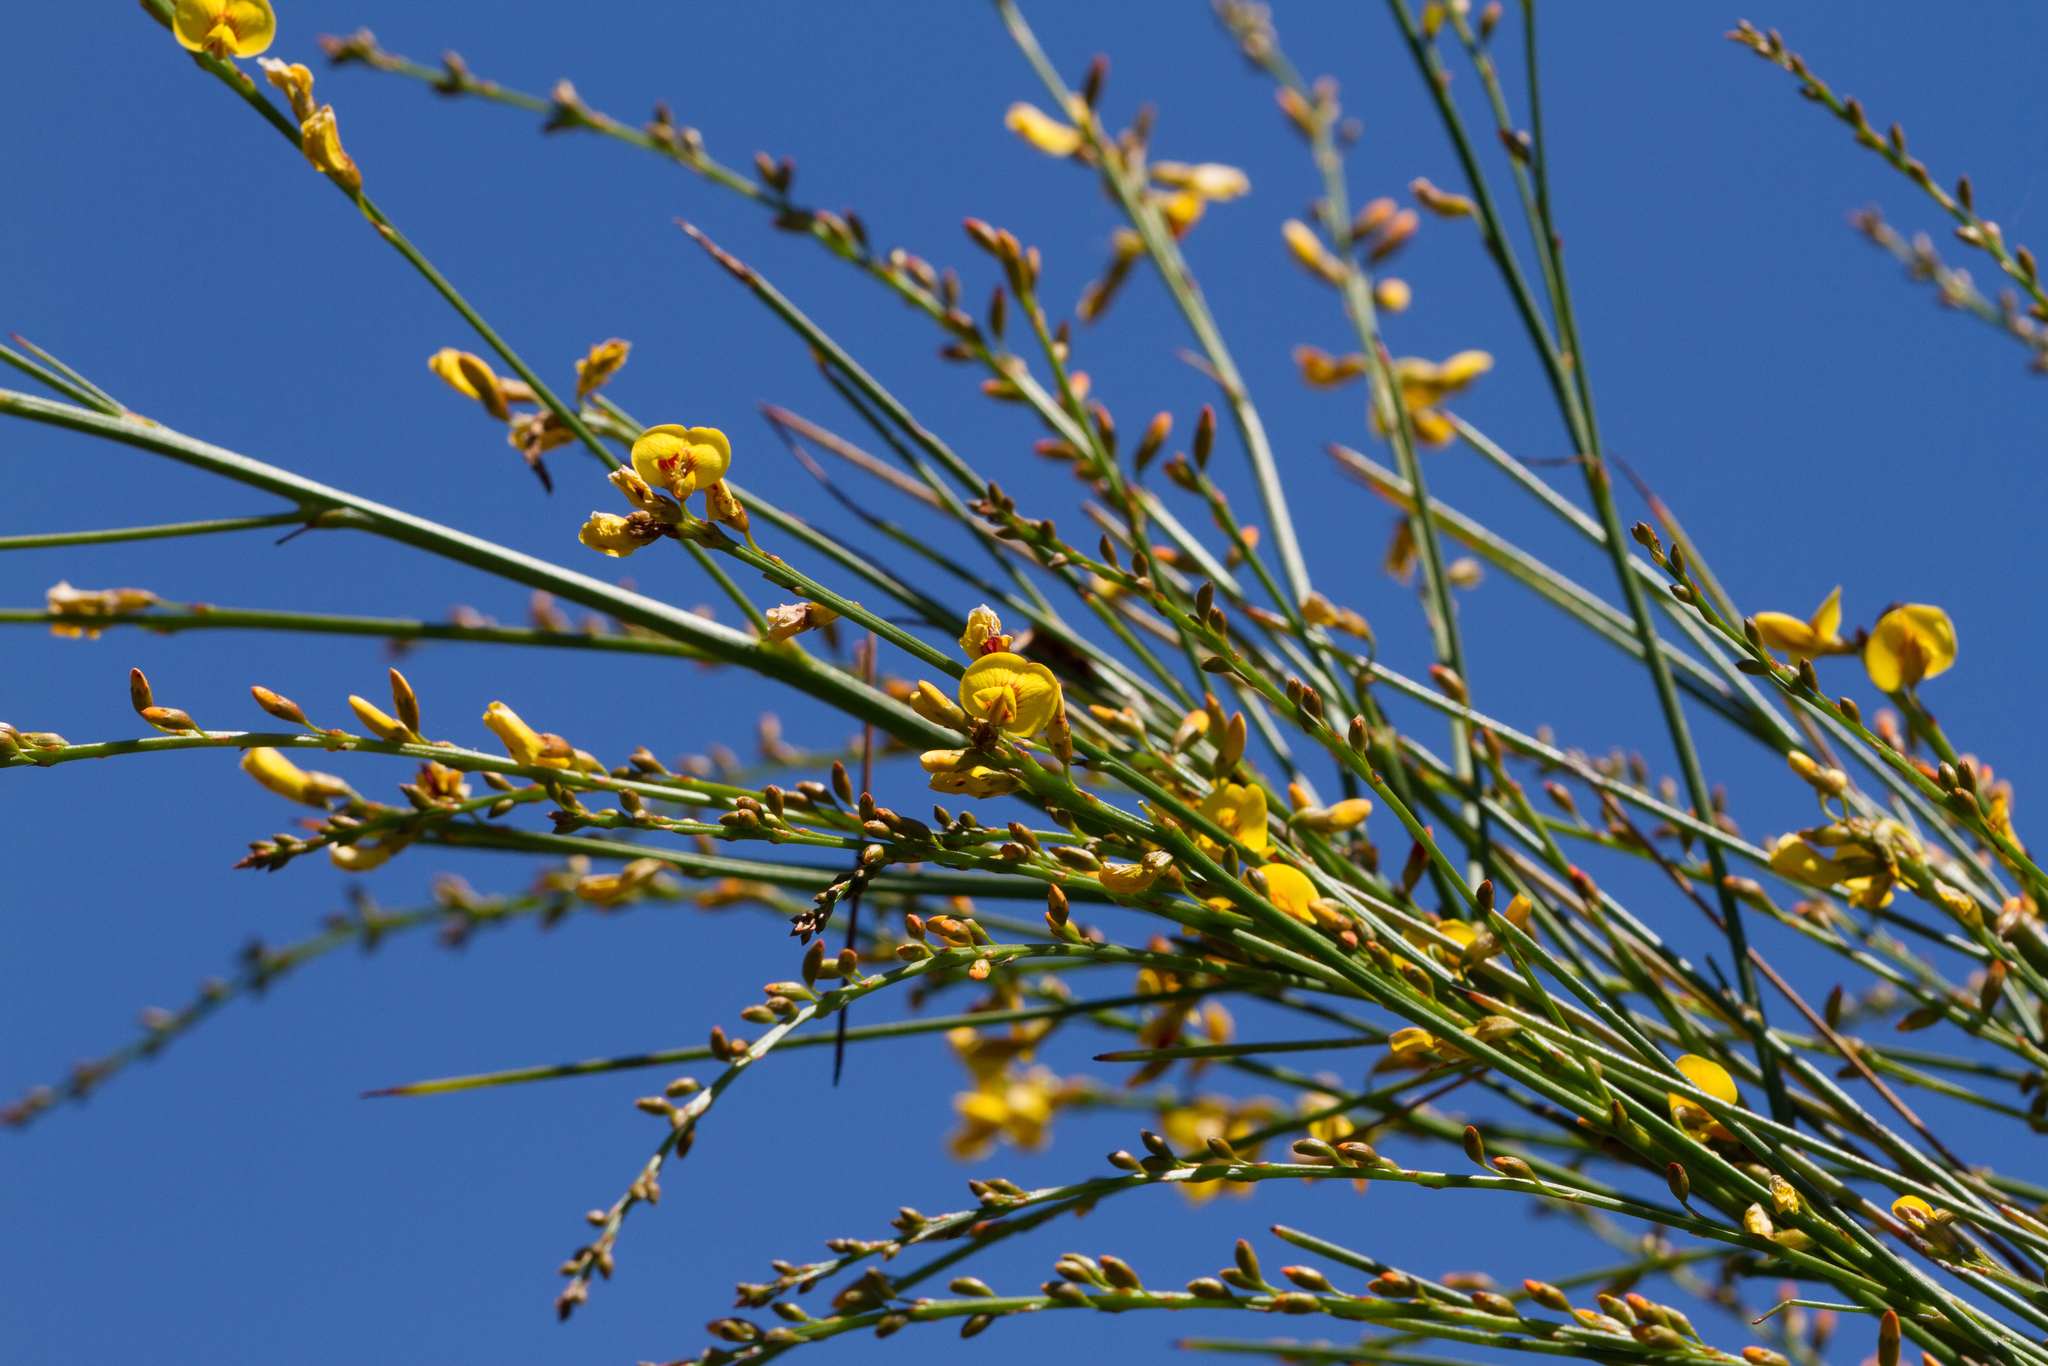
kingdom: Plantae
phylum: Tracheophyta
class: Magnoliopsida
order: Fabales
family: Fabaceae
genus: Viminaria
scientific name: Viminaria juncea
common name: Golden spray
